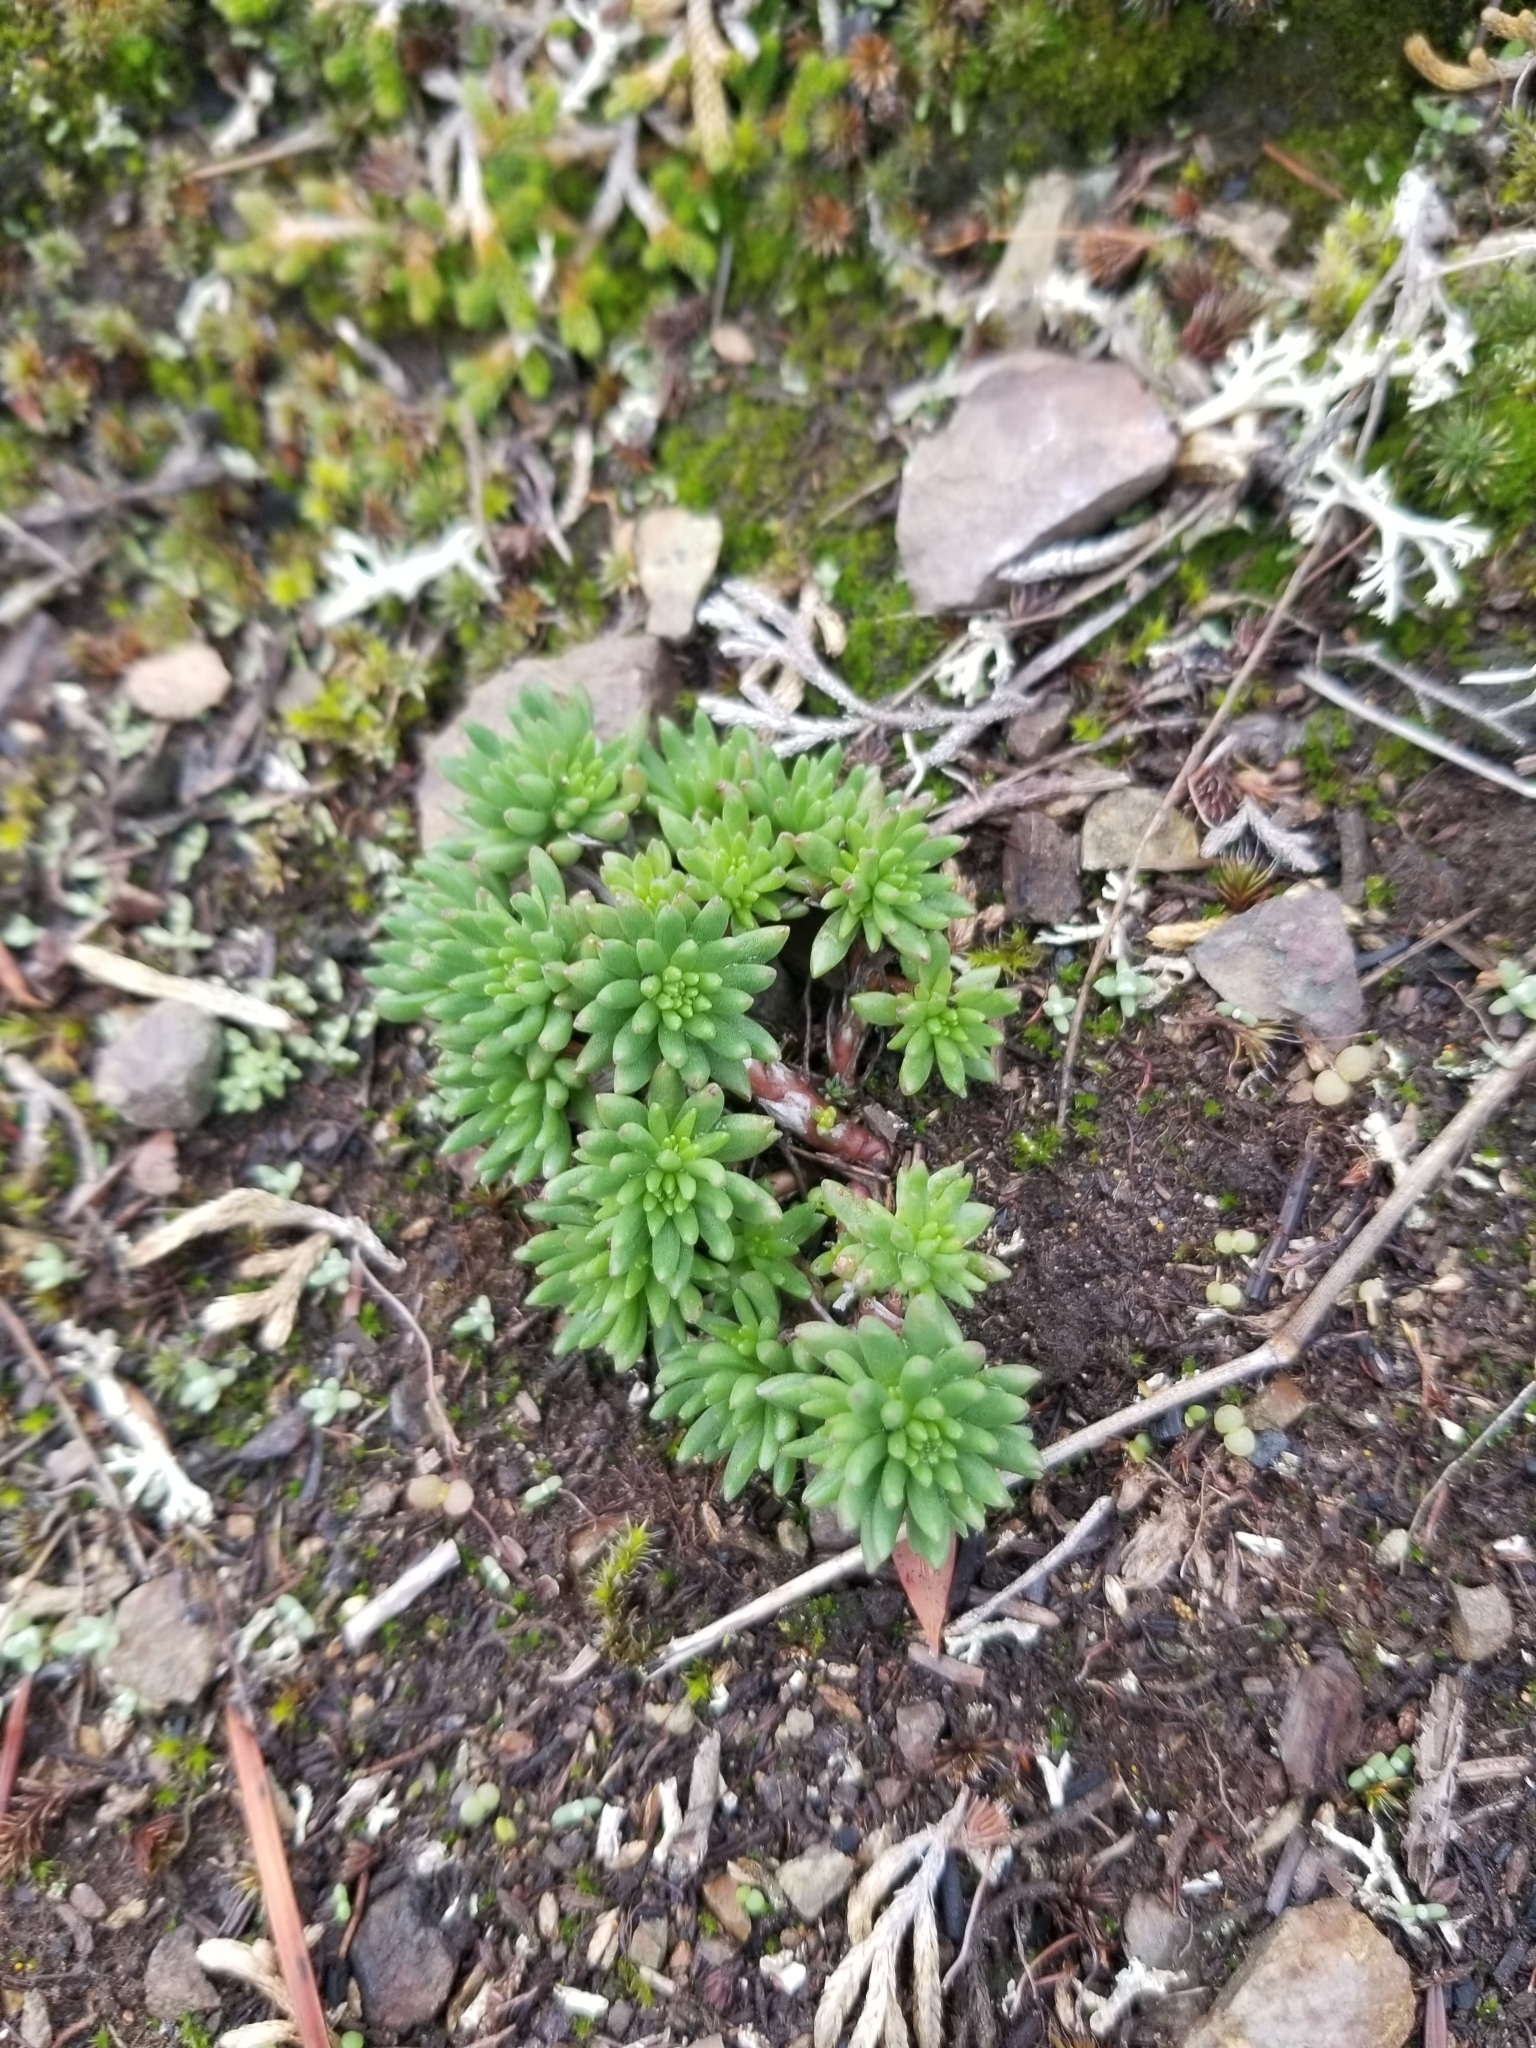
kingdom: Plantae
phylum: Tracheophyta
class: Magnoliopsida
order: Saxifragales
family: Crassulaceae
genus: Sedum
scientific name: Sedum stenopetalum
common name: Narrow-petaled stonecrop
